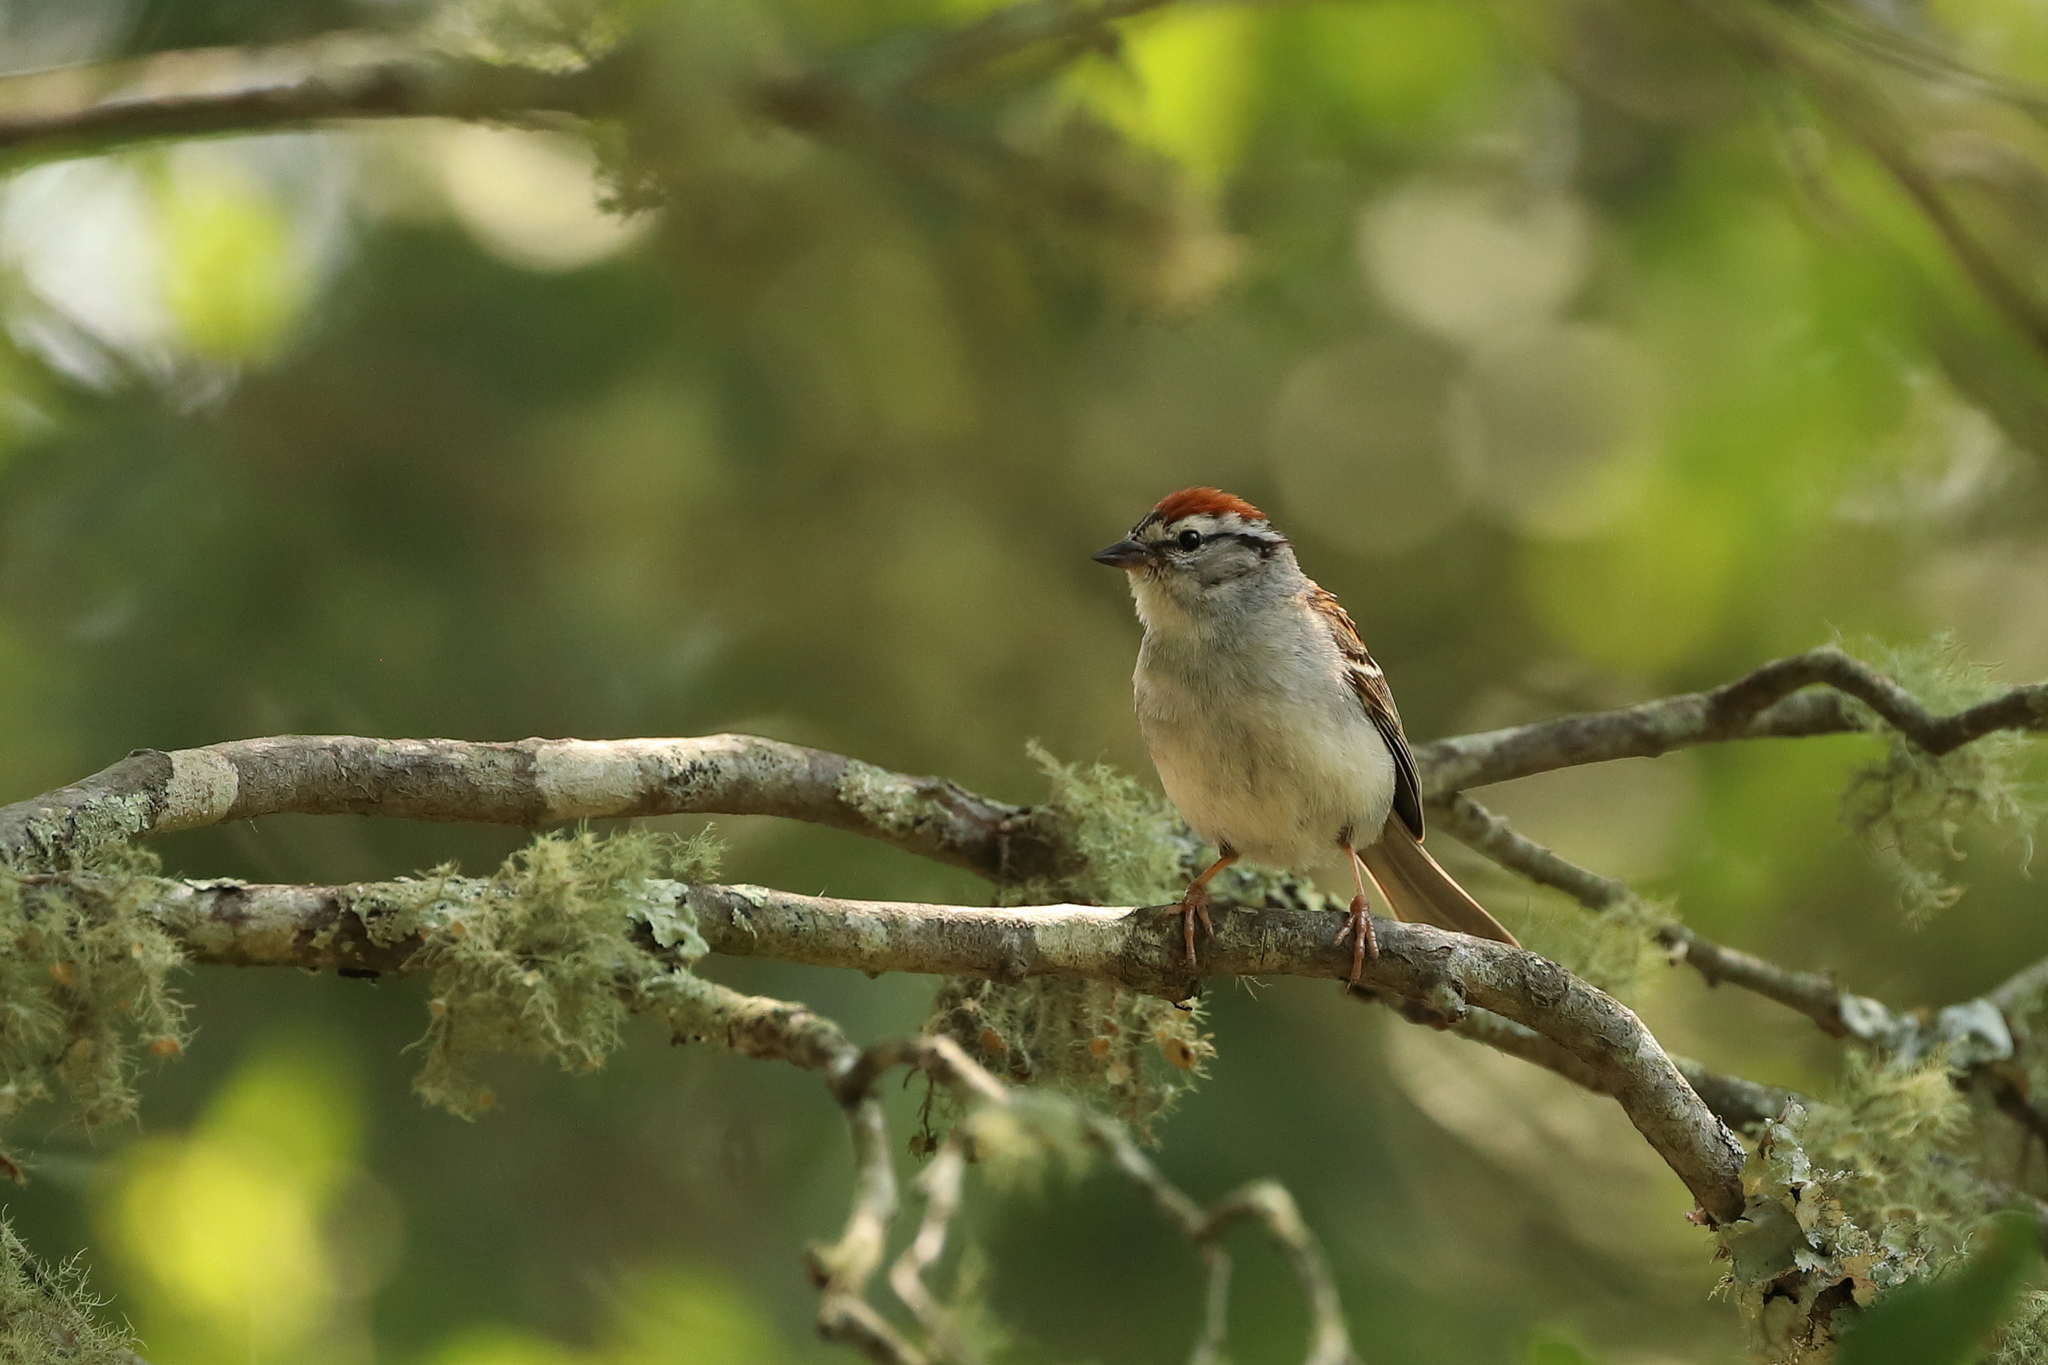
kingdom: Animalia
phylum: Chordata
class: Aves
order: Passeriformes
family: Passerellidae
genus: Spizella
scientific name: Spizella passerina
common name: Chipping sparrow
